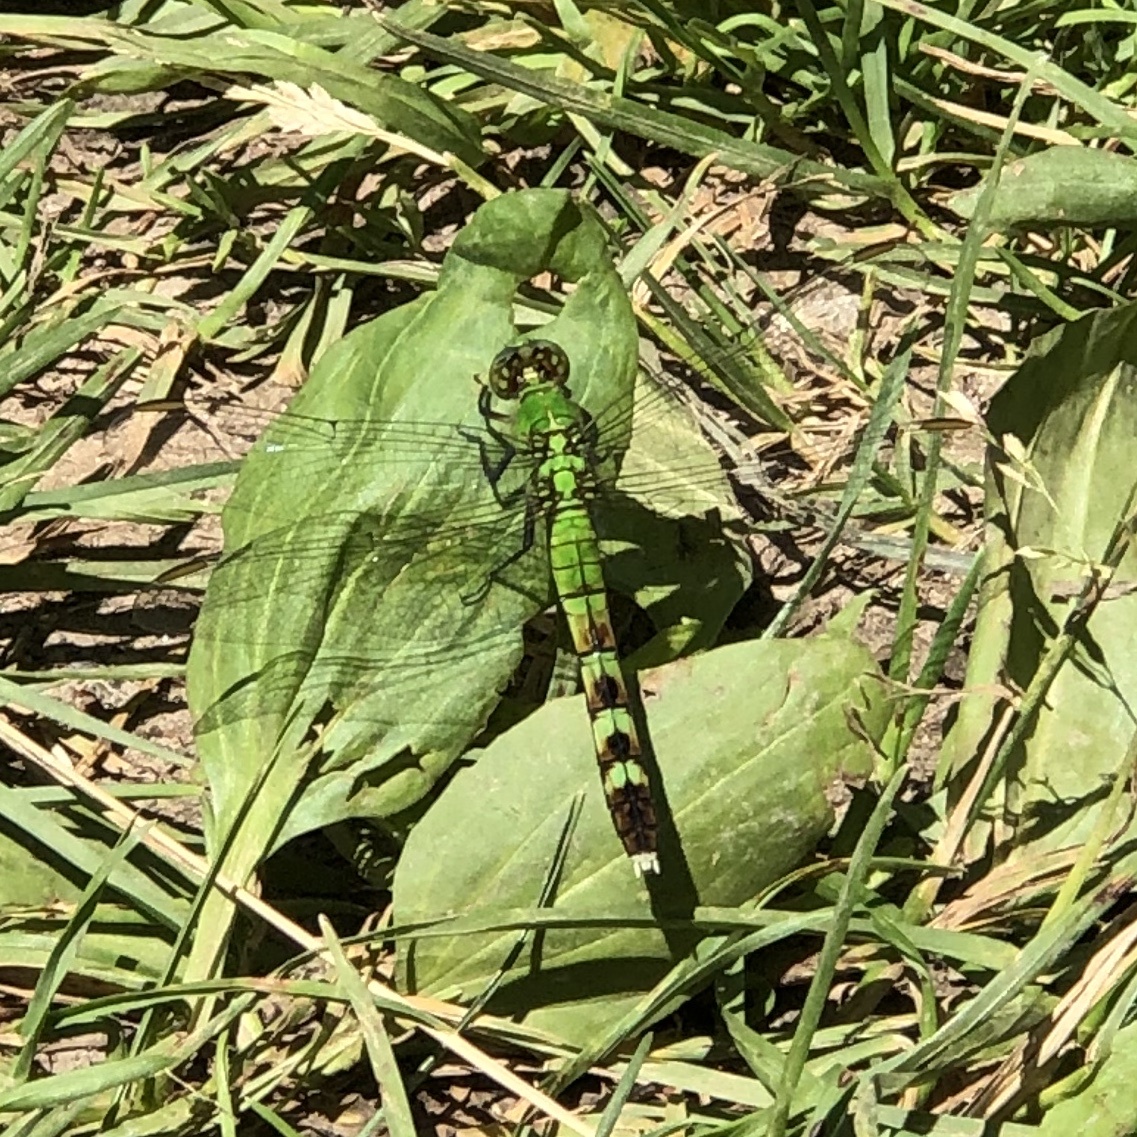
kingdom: Animalia
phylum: Arthropoda
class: Insecta
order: Odonata
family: Libellulidae
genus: Erythemis
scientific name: Erythemis simplicicollis
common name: Eastern pondhawk
